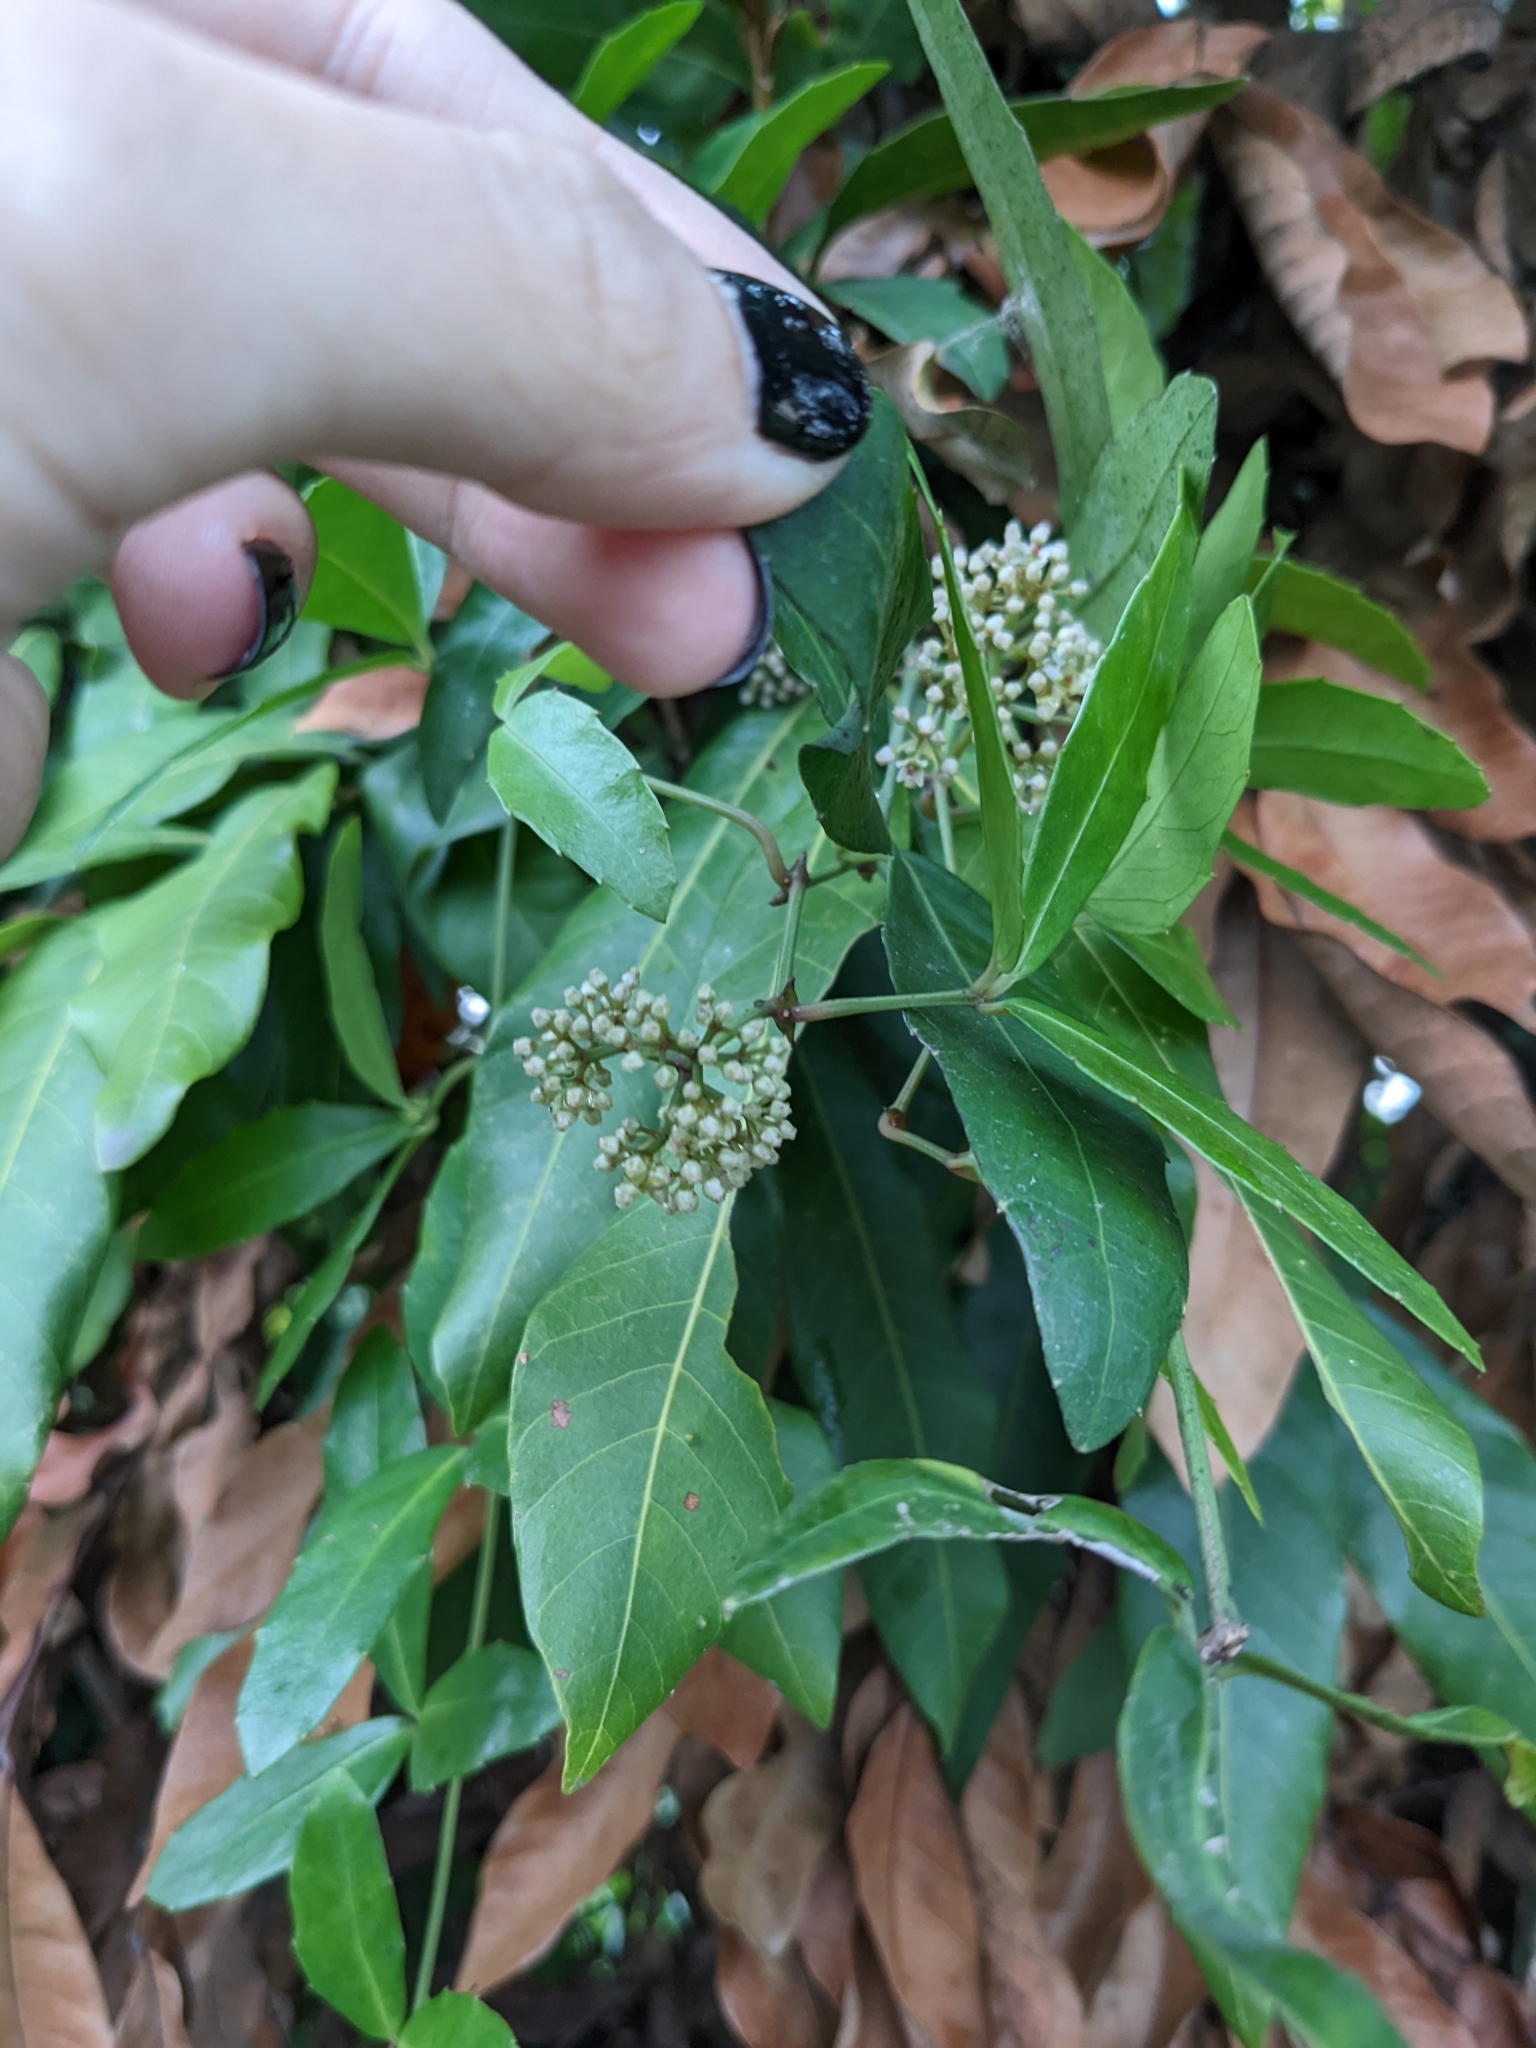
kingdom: Plantae
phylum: Tracheophyta
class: Magnoliopsida
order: Vitales
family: Vitaceae
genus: Tetrastigma
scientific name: Tetrastigma formosanum
